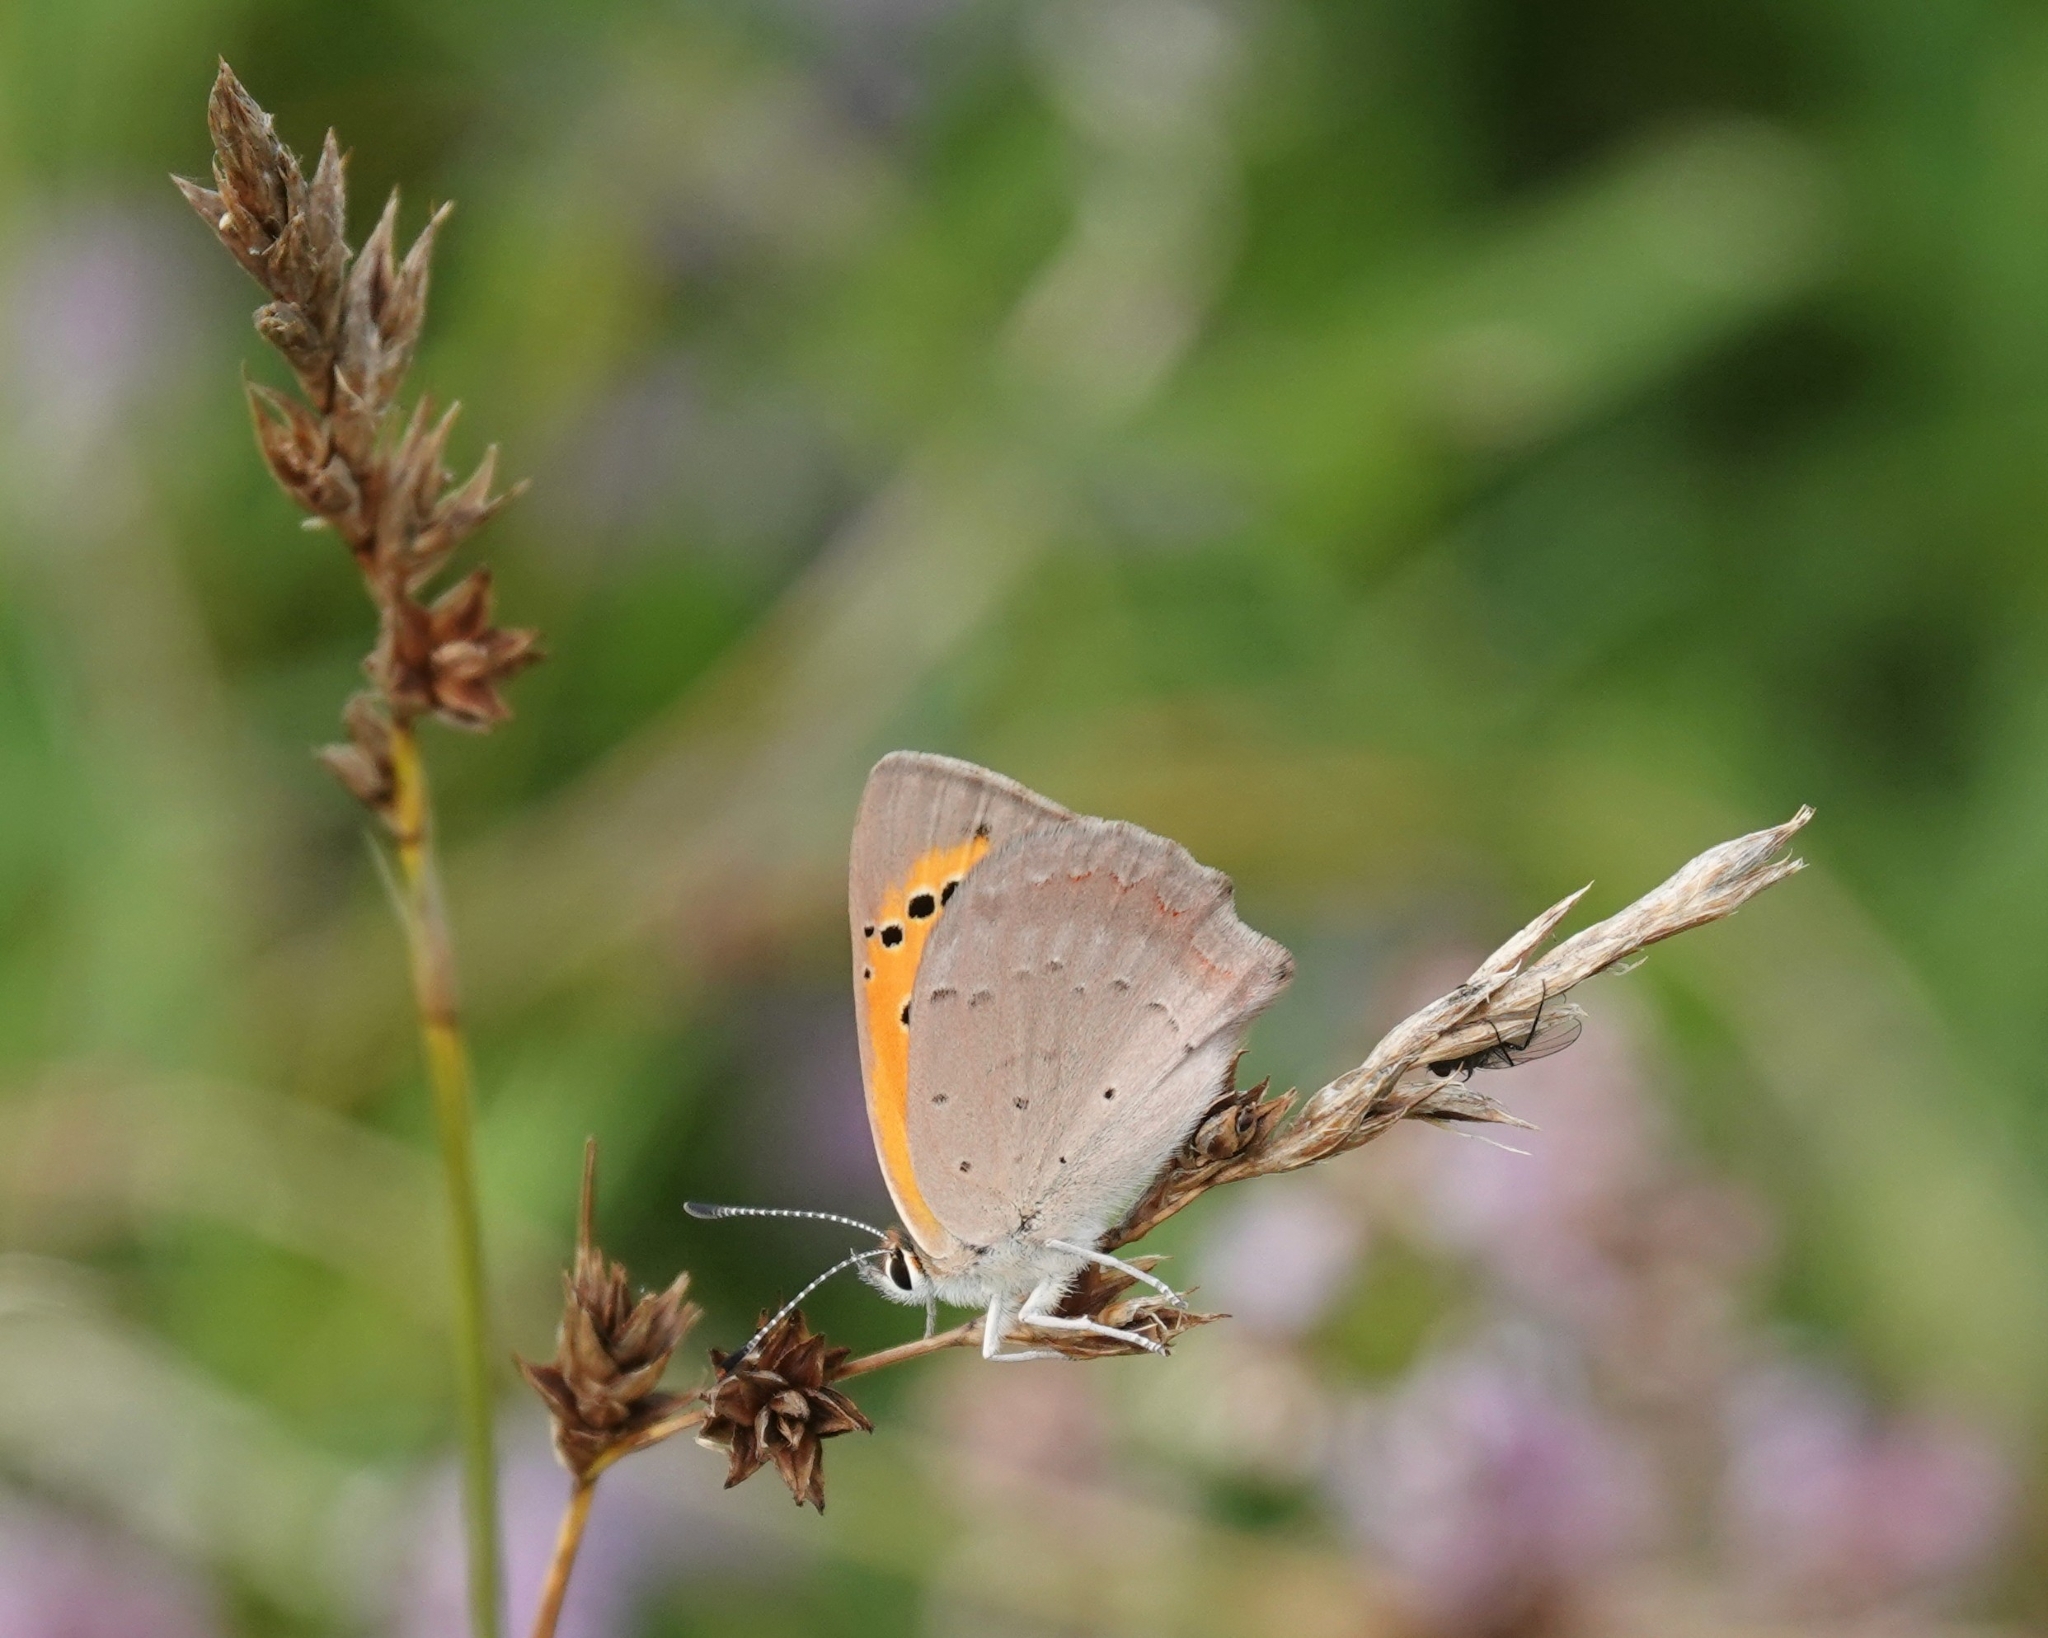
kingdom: Animalia
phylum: Arthropoda
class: Insecta
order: Lepidoptera
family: Lycaenidae
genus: Lycaena
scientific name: Lycaena phlaeas
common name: Small copper
